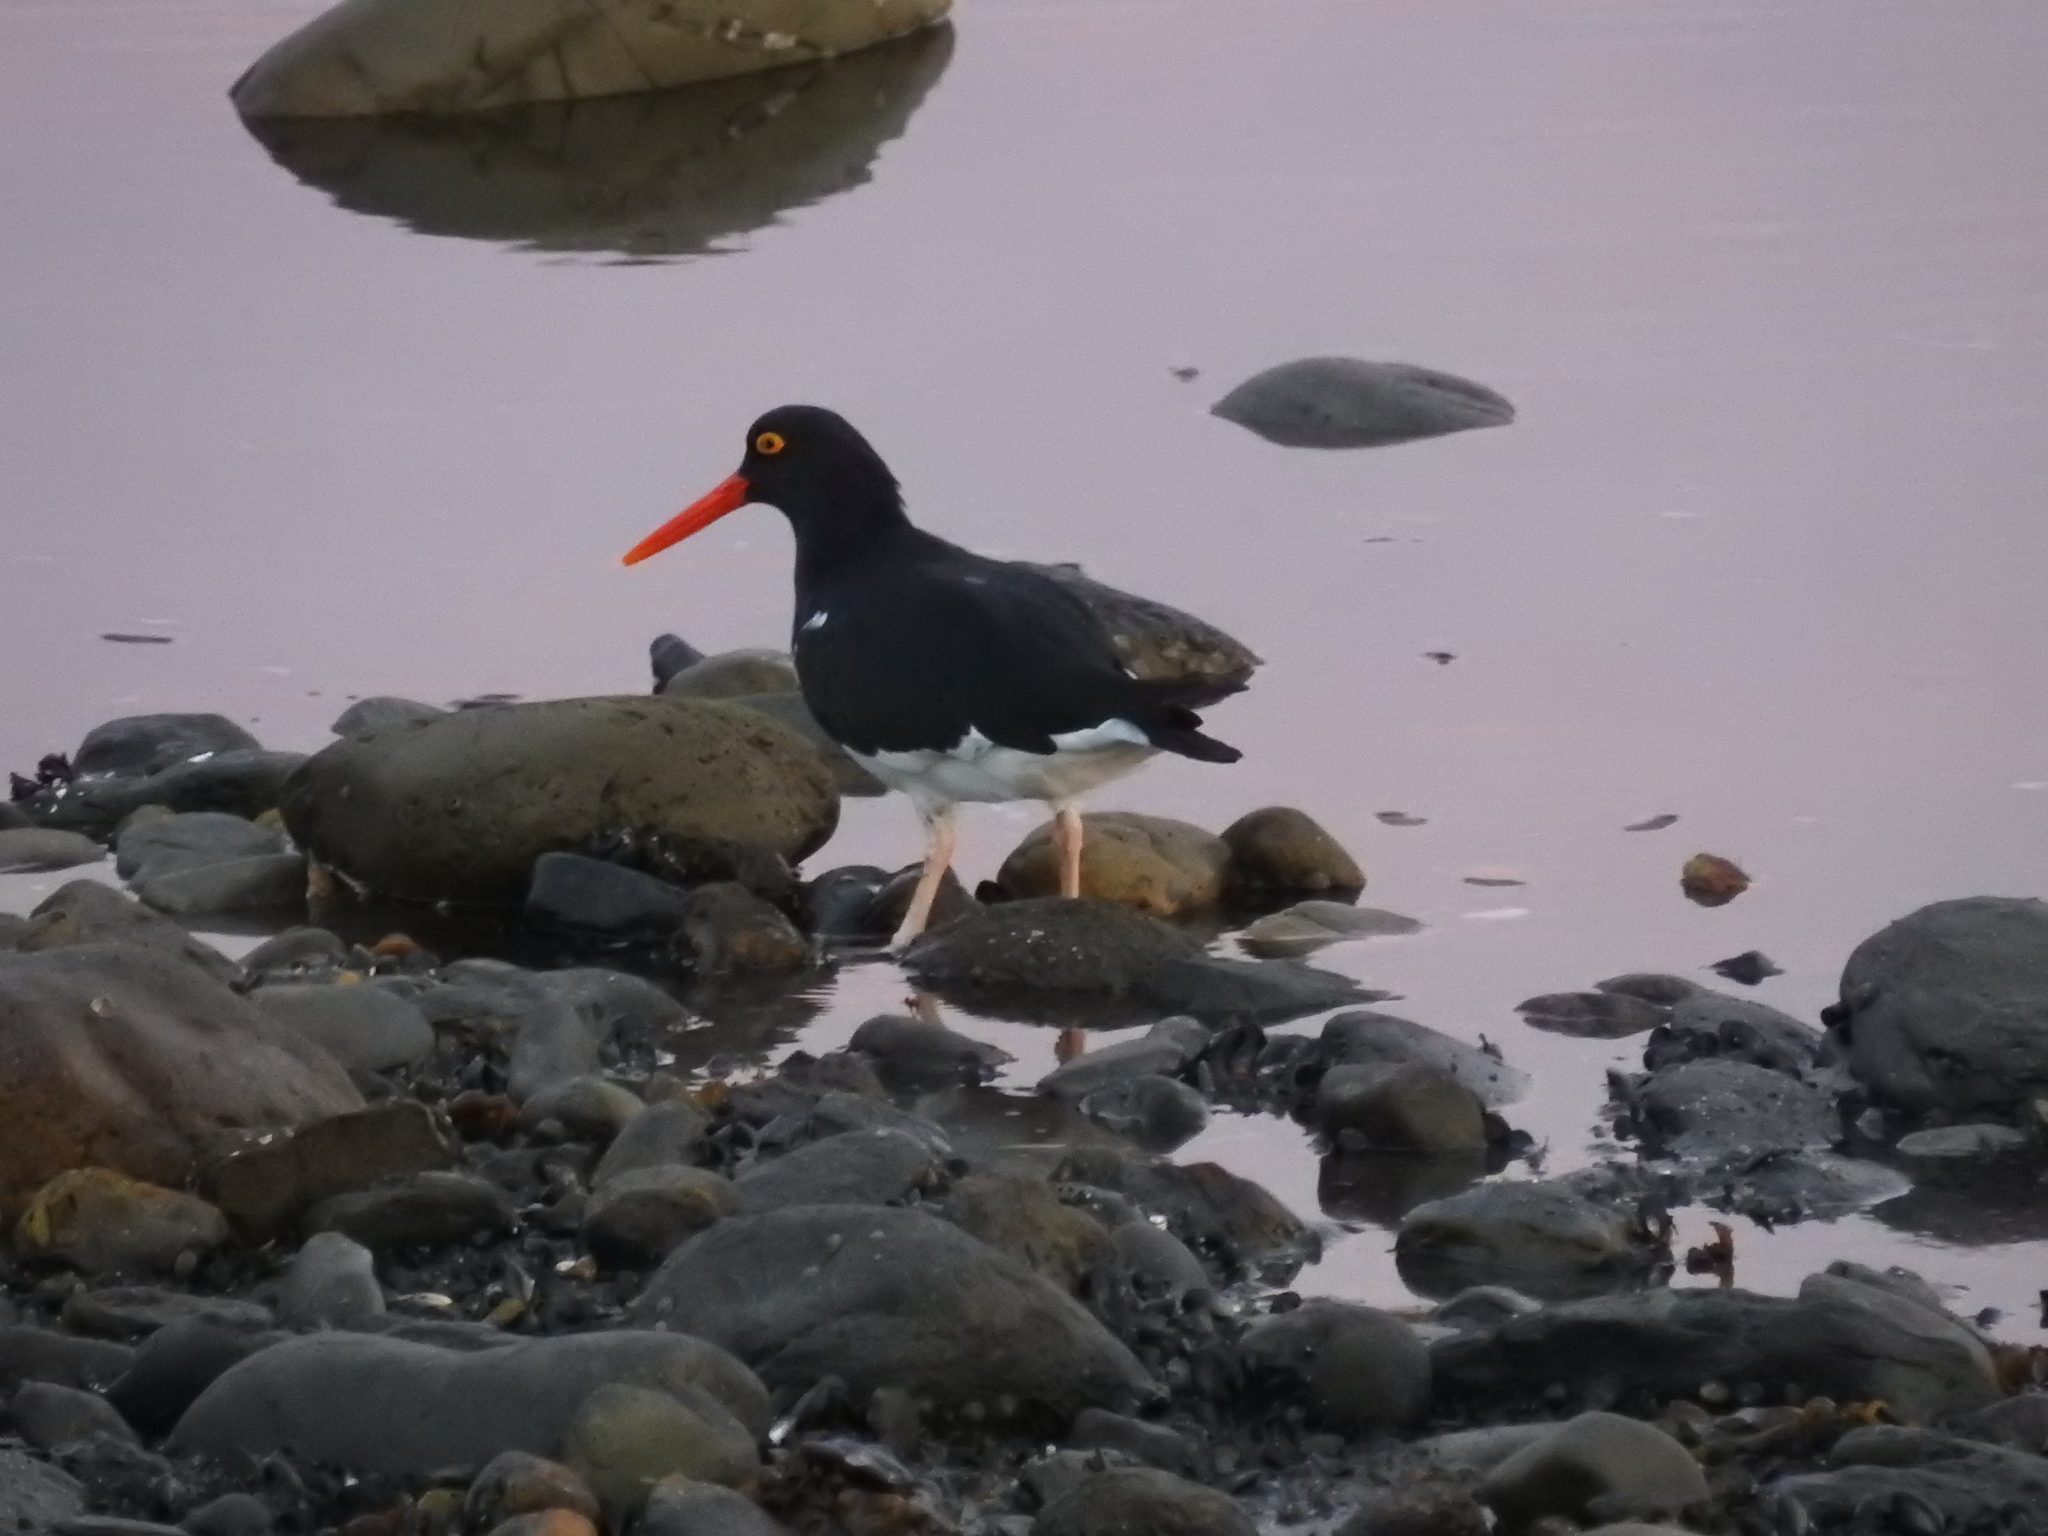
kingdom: Animalia
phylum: Chordata
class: Aves
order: Charadriiformes
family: Haematopodidae
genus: Haematopus
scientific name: Haematopus leucopodus
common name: Magellanic oystercatcher
